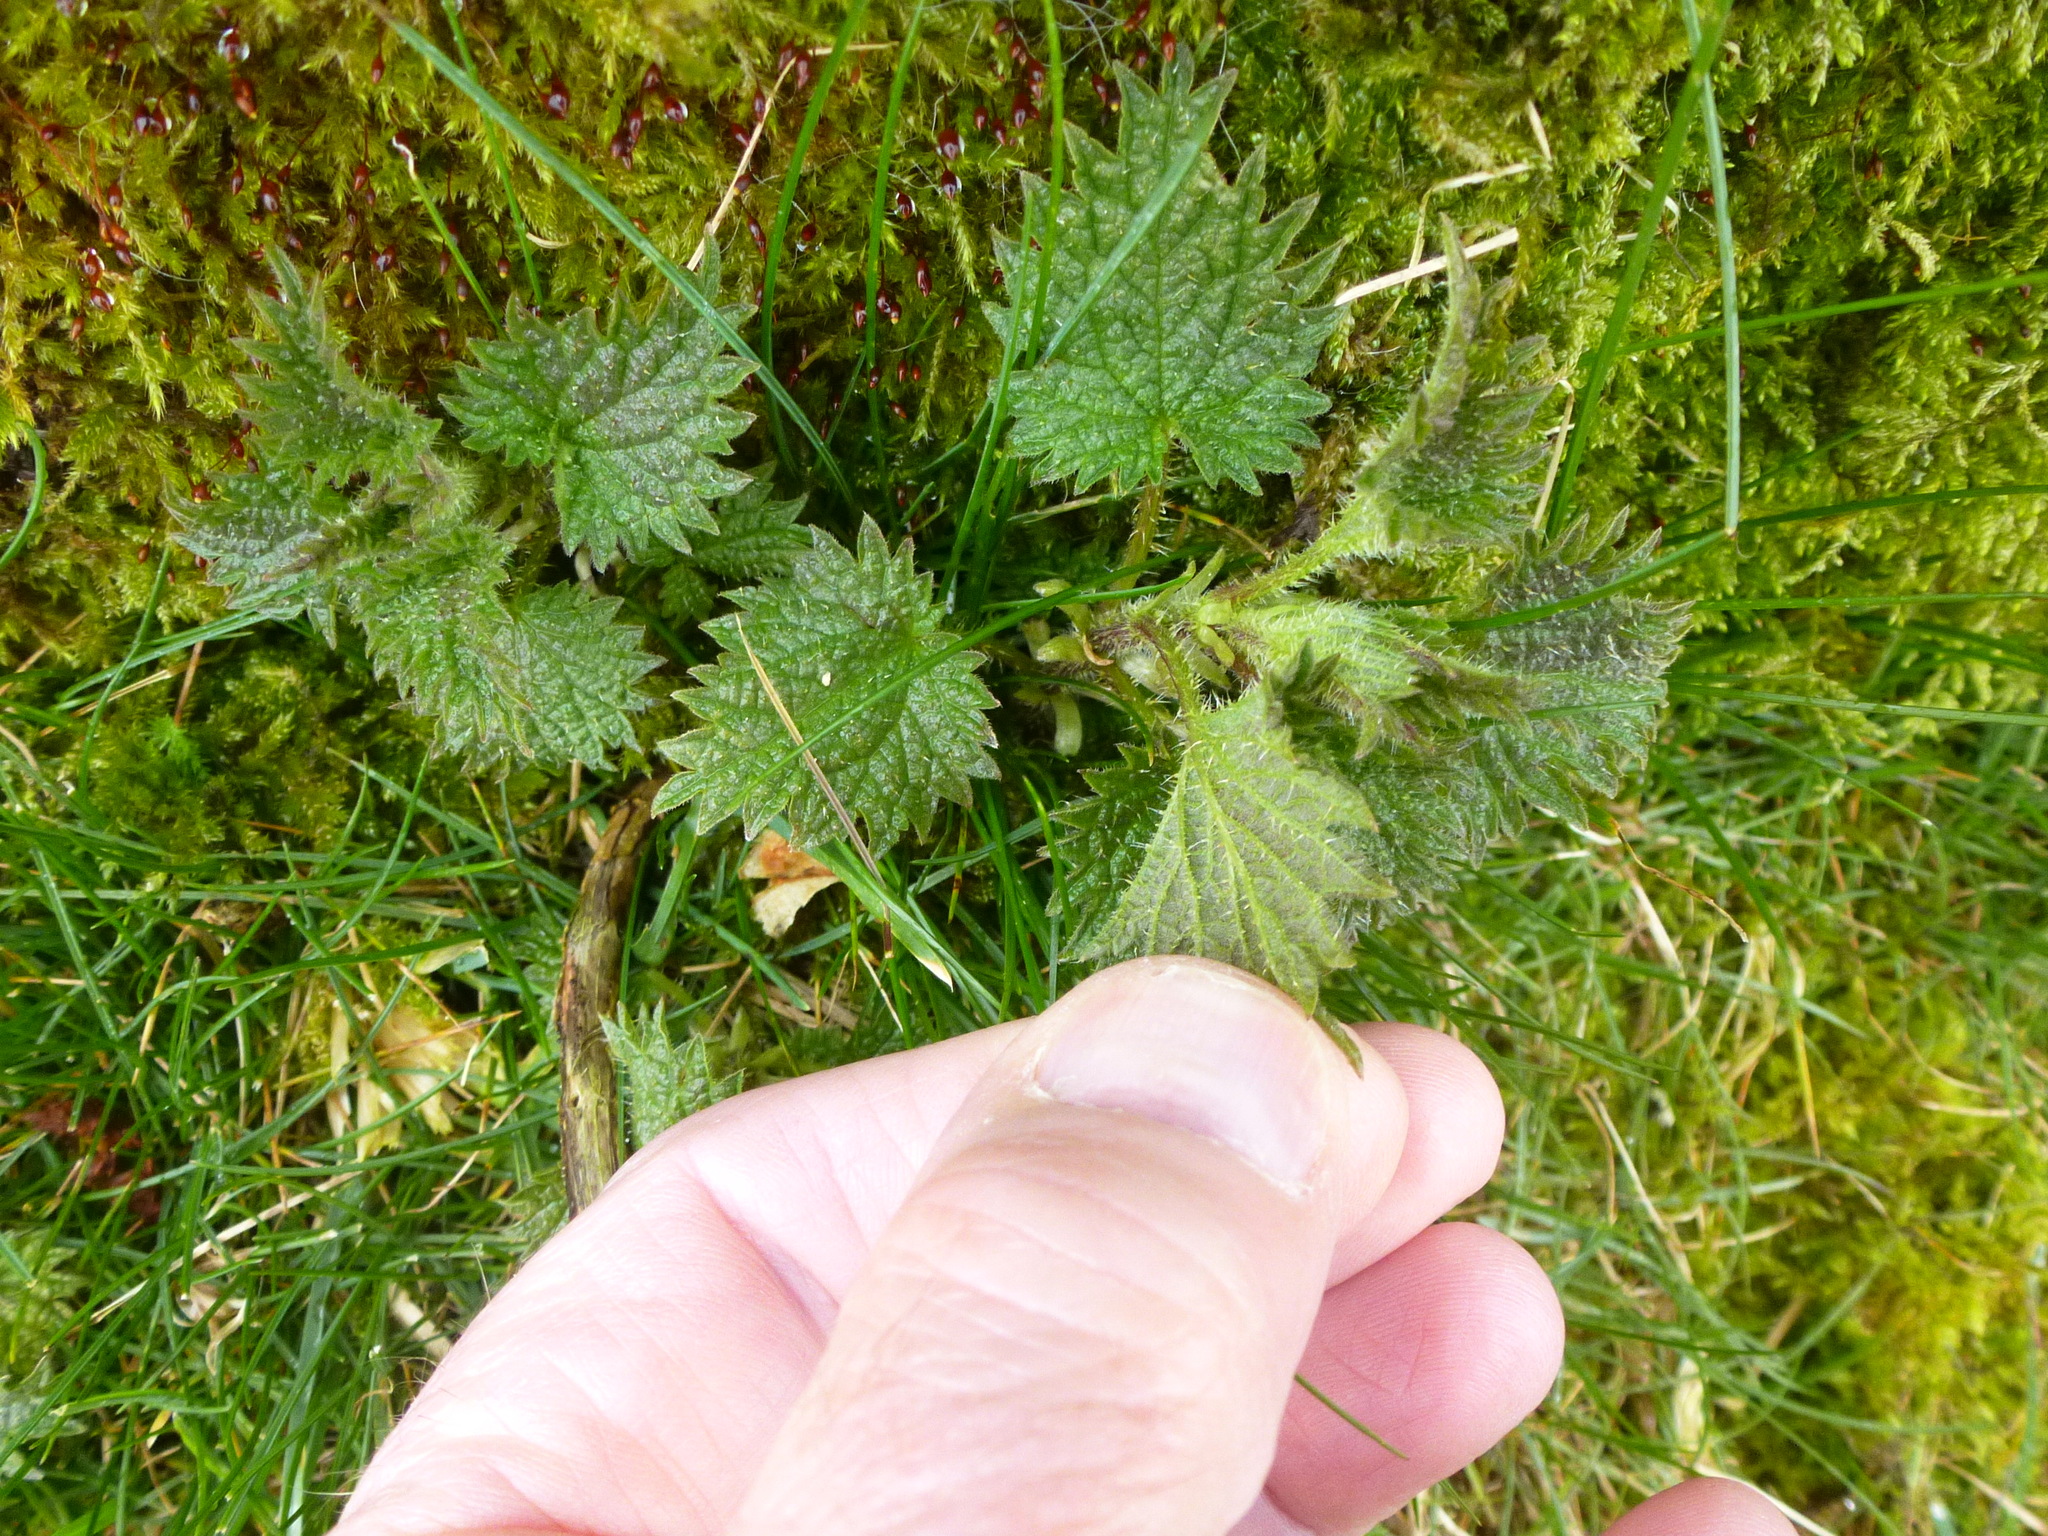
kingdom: Plantae
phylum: Tracheophyta
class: Magnoliopsida
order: Rosales
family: Urticaceae
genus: Urtica
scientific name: Urtica dioica
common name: Common nettle
